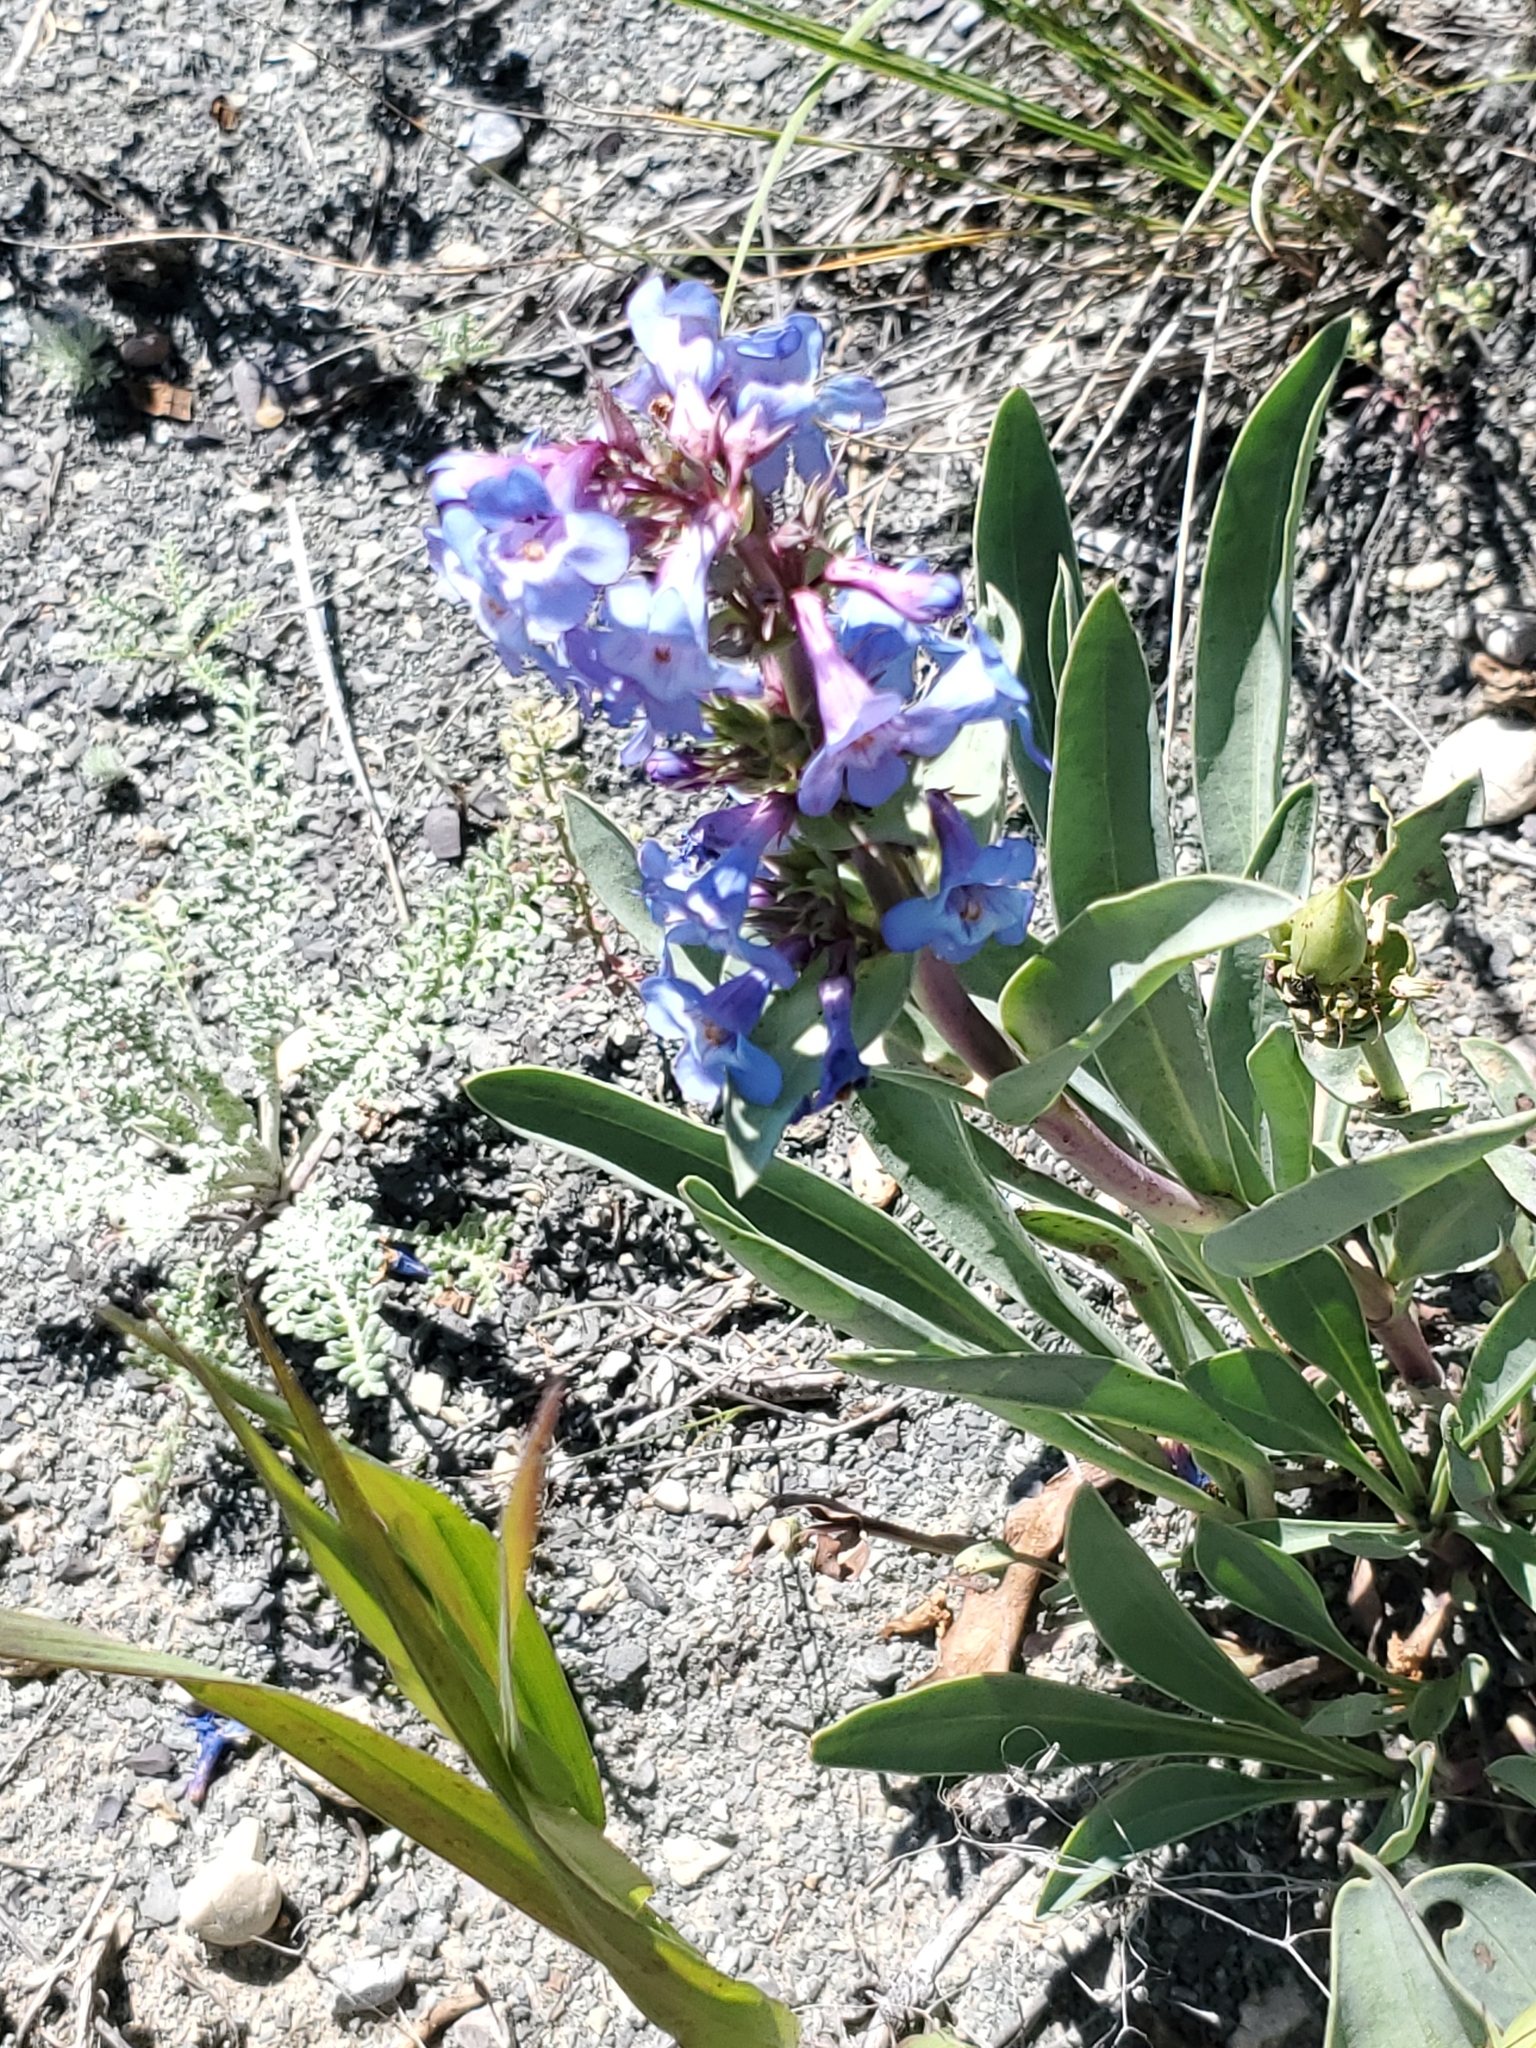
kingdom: Plantae
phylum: Tracheophyta
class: Magnoliopsida
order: Lamiales
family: Plantaginaceae
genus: Penstemon
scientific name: Penstemon nitidus
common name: Shining penstemon
